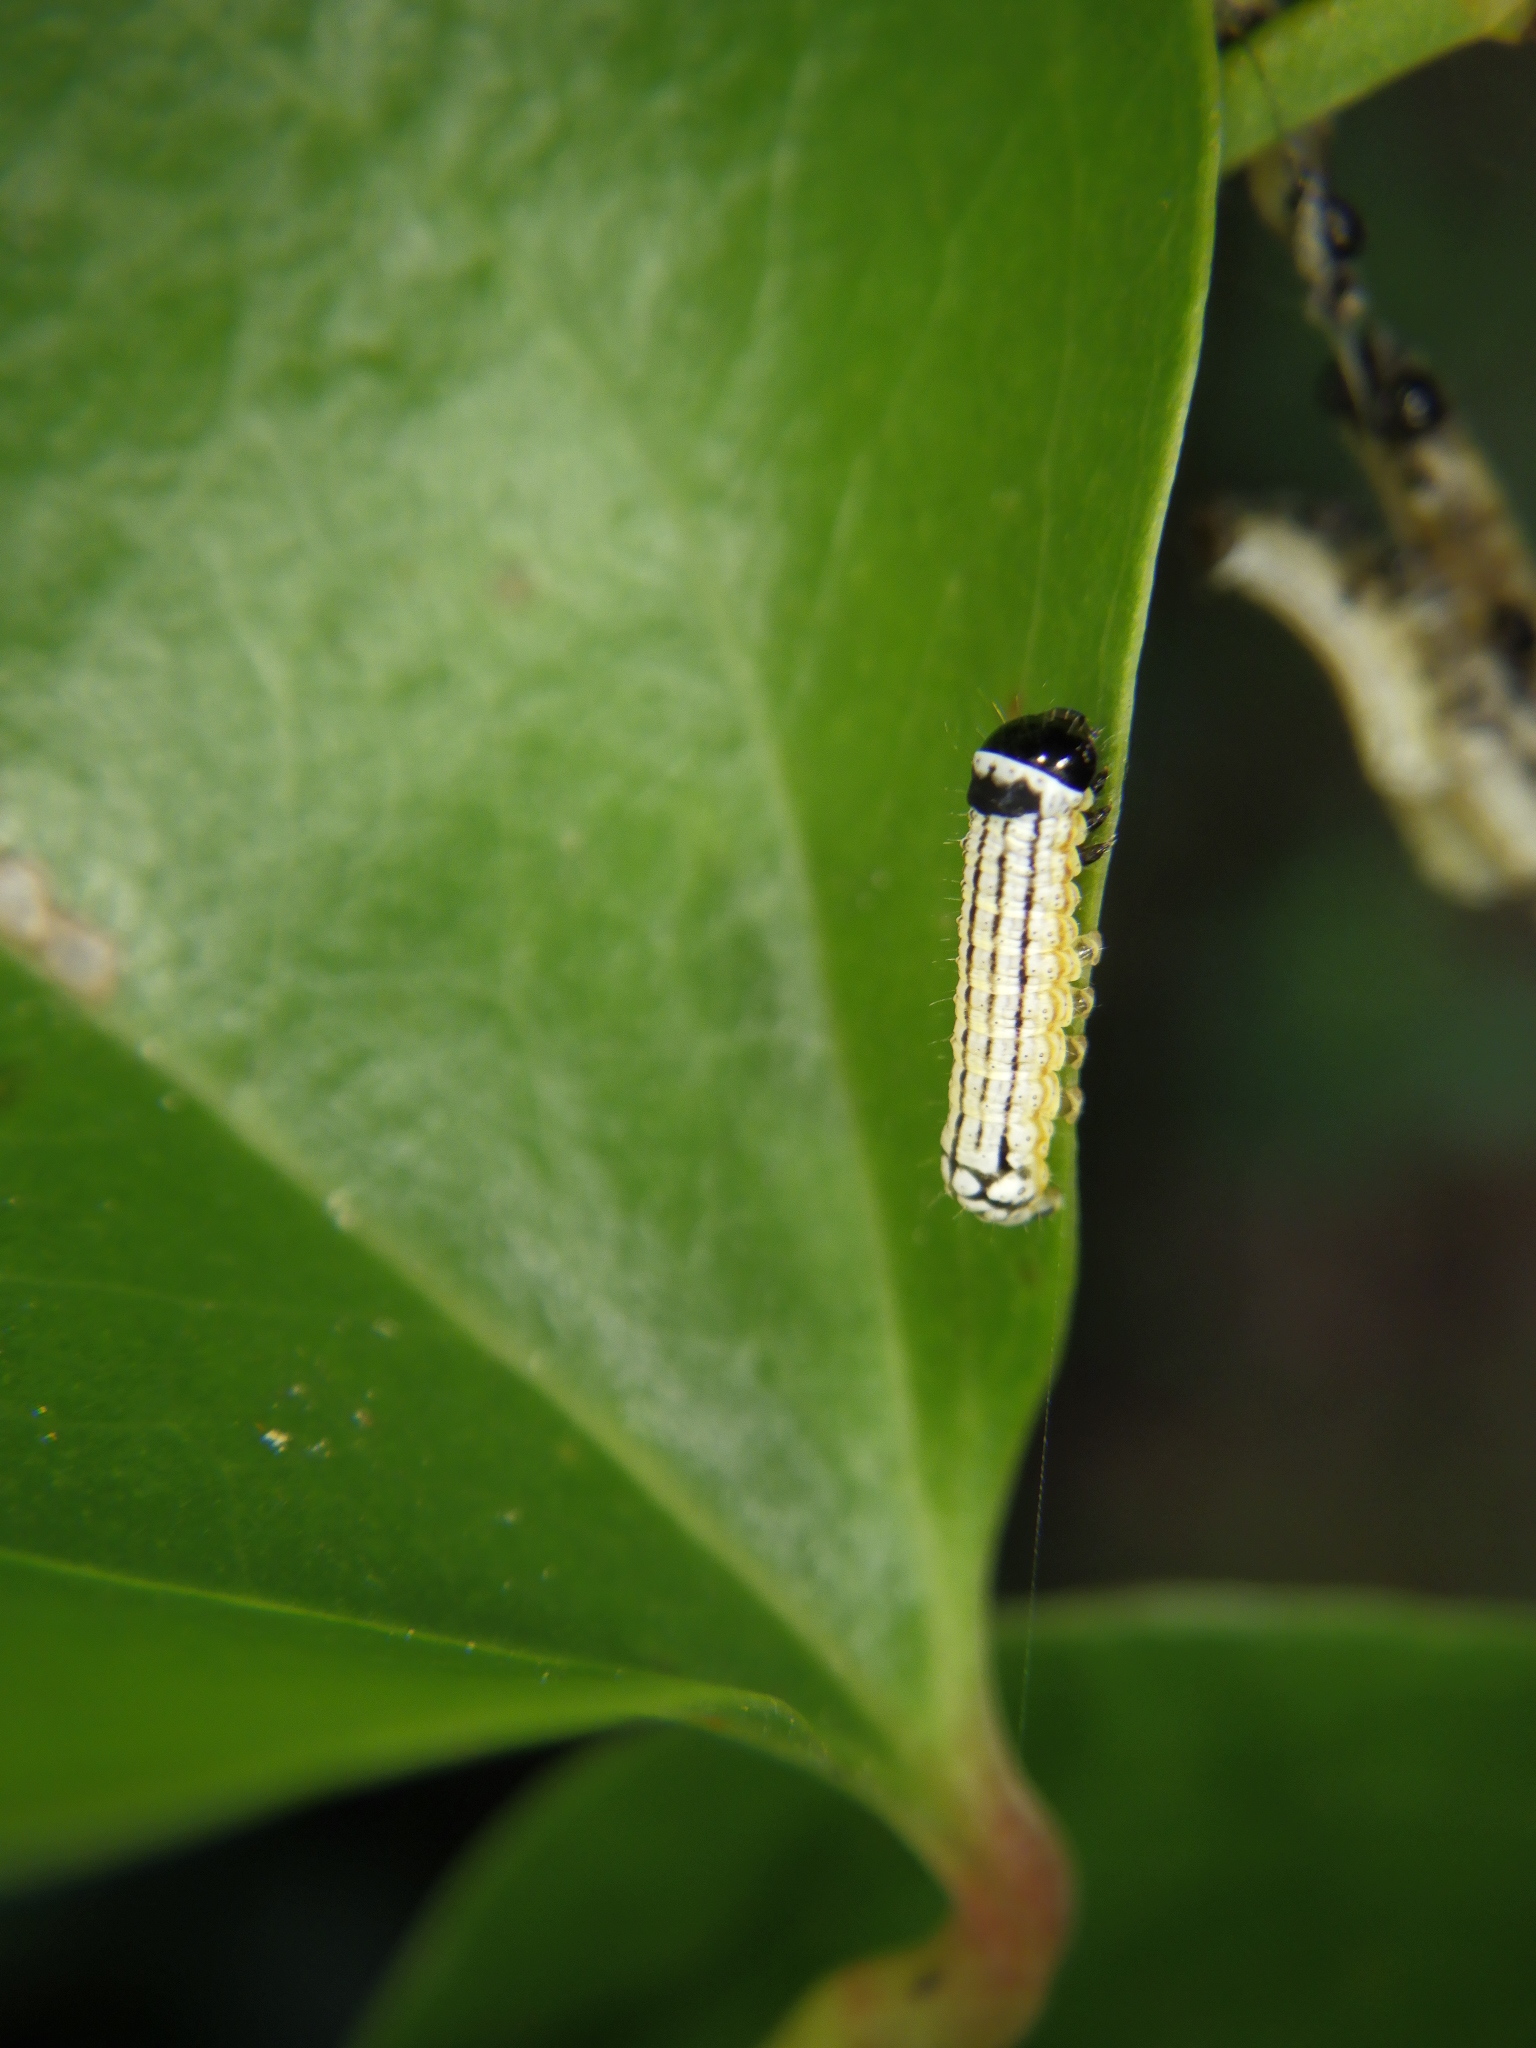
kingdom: Animalia
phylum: Arthropoda
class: Insecta
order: Lepidoptera
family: Noctuidae
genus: Phosphila
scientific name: Phosphila turbulenta
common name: Turbulent phosphila moth
